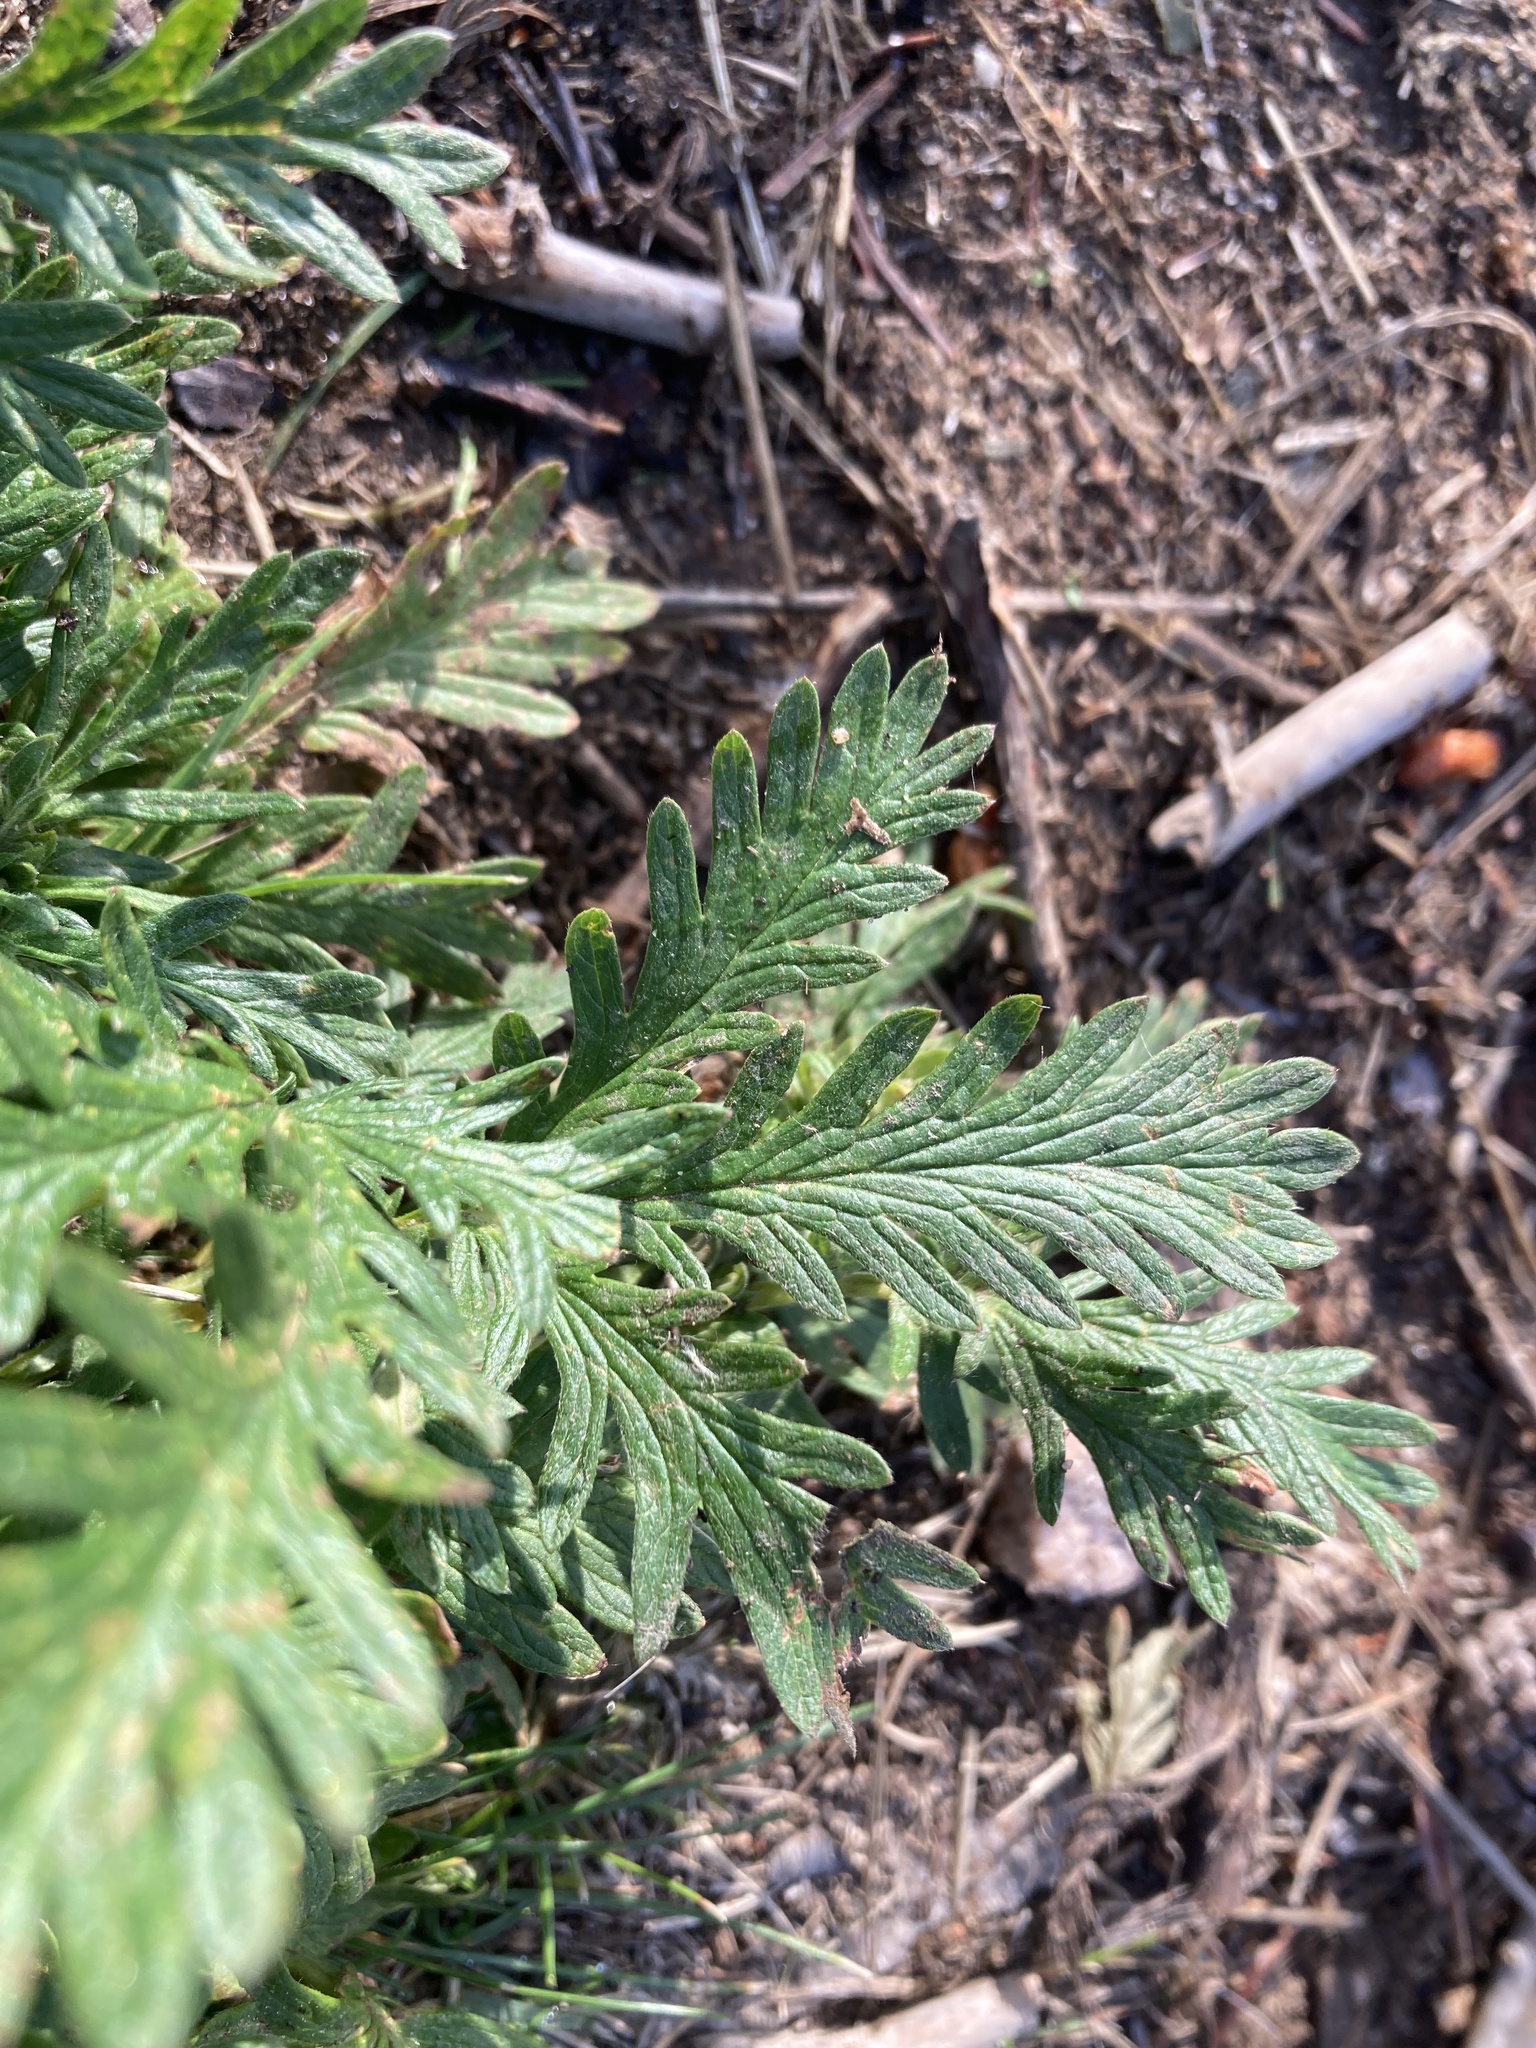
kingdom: Plantae
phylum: Tracheophyta
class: Magnoliopsida
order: Rosales
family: Rosaceae
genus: Potentilla
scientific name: Potentilla litoralis
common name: Coast cinquefoil
